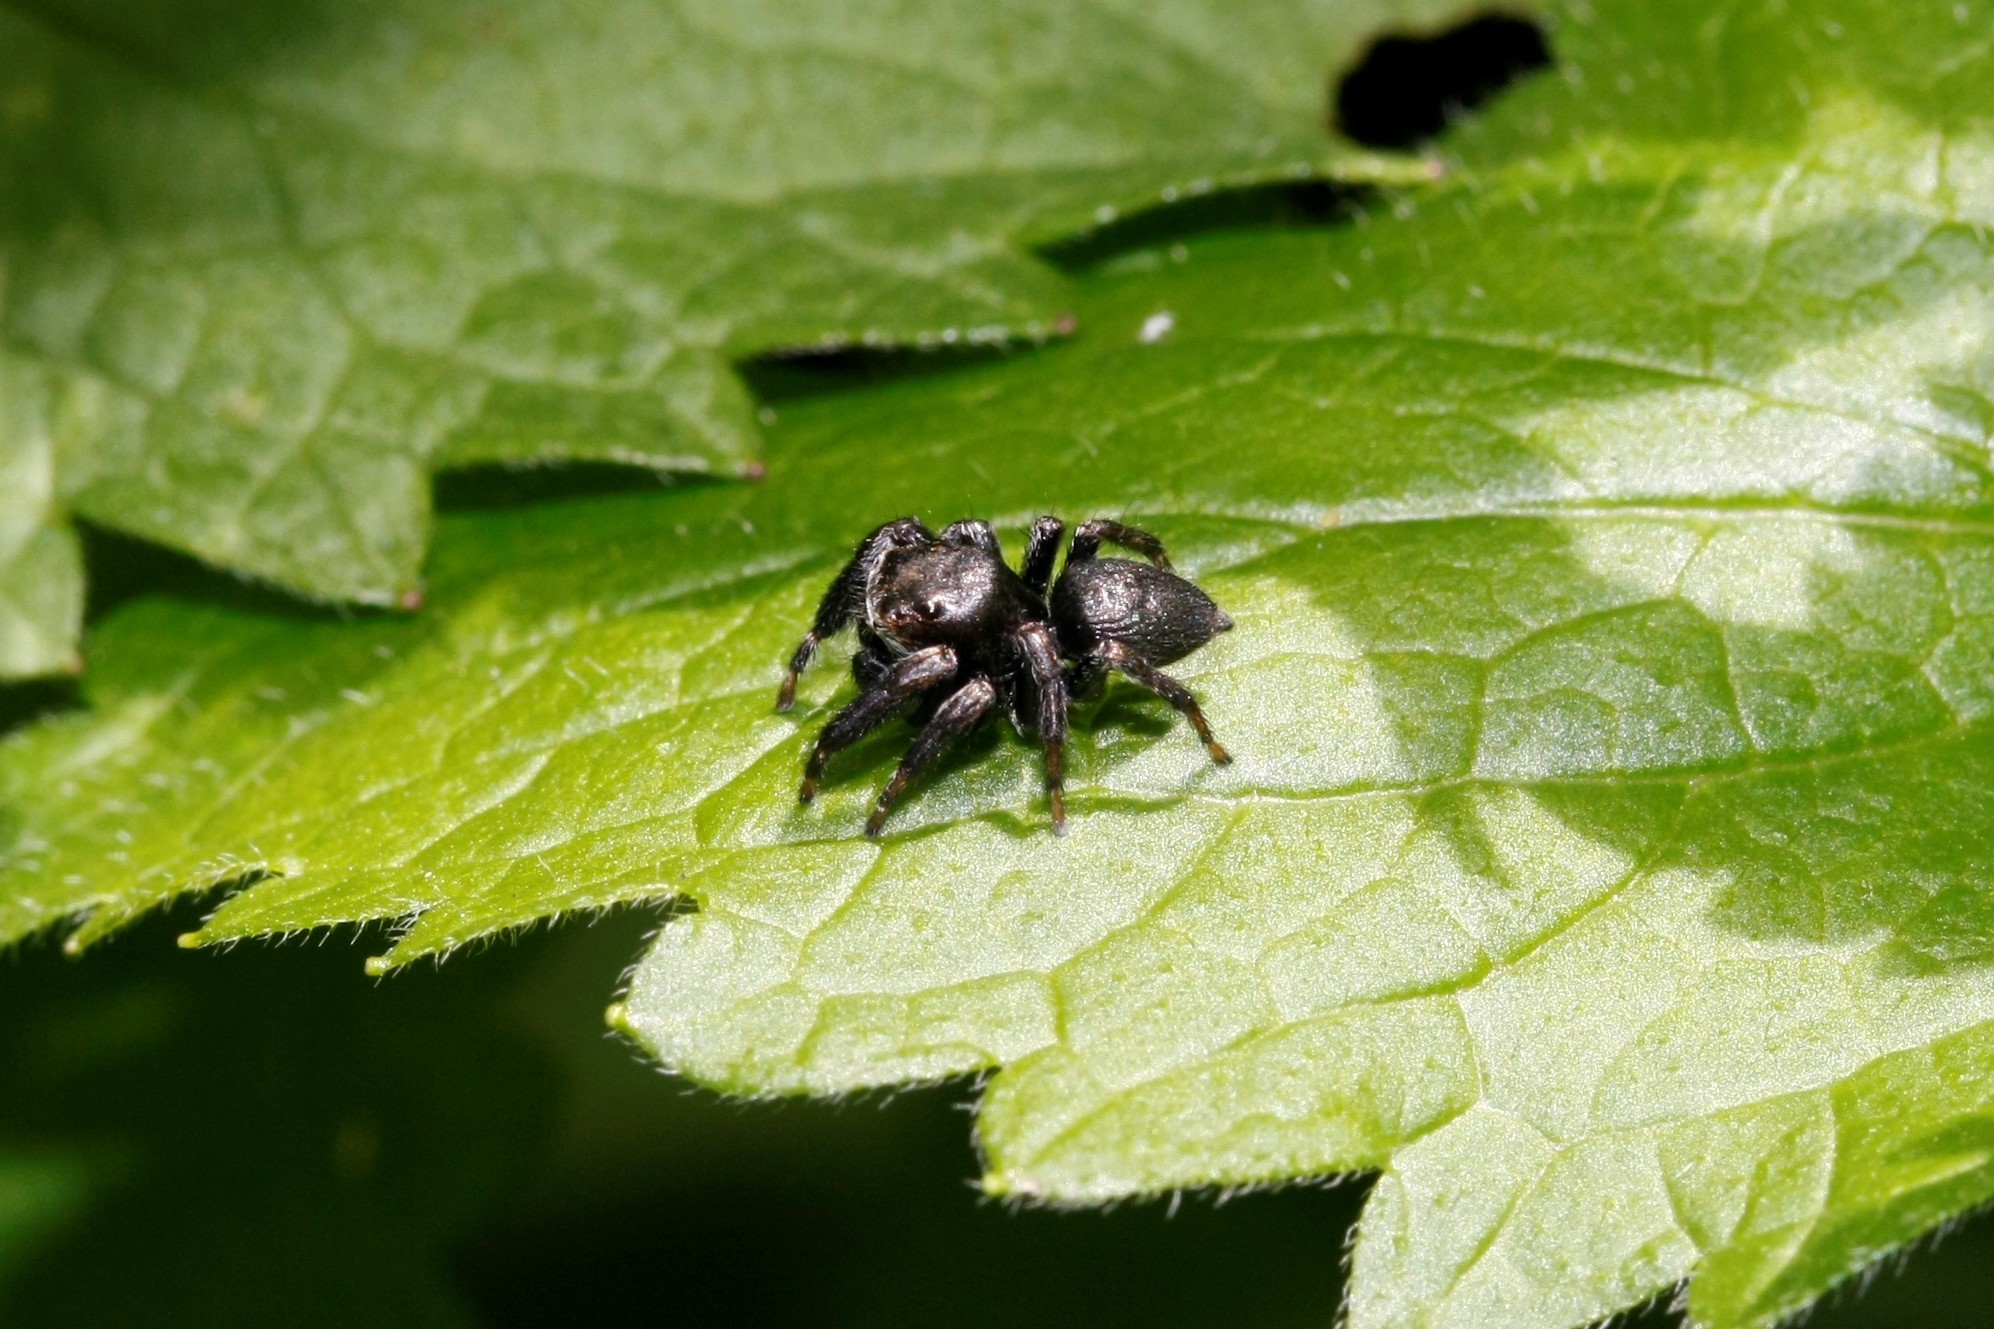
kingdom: Animalia
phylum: Arthropoda
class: Arachnida
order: Araneae
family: Salticidae
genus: Evarcha
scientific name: Evarcha arcuata
